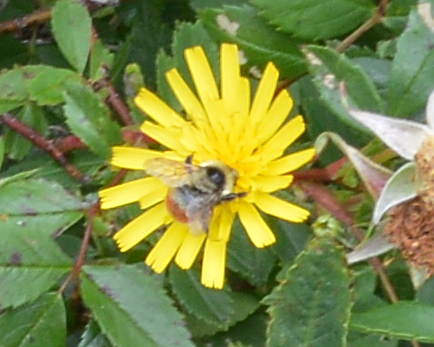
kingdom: Animalia
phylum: Arthropoda
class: Insecta
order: Hymenoptera
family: Apidae
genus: Bombus
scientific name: Bombus rufocinctus
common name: Red-belted bumble bee
